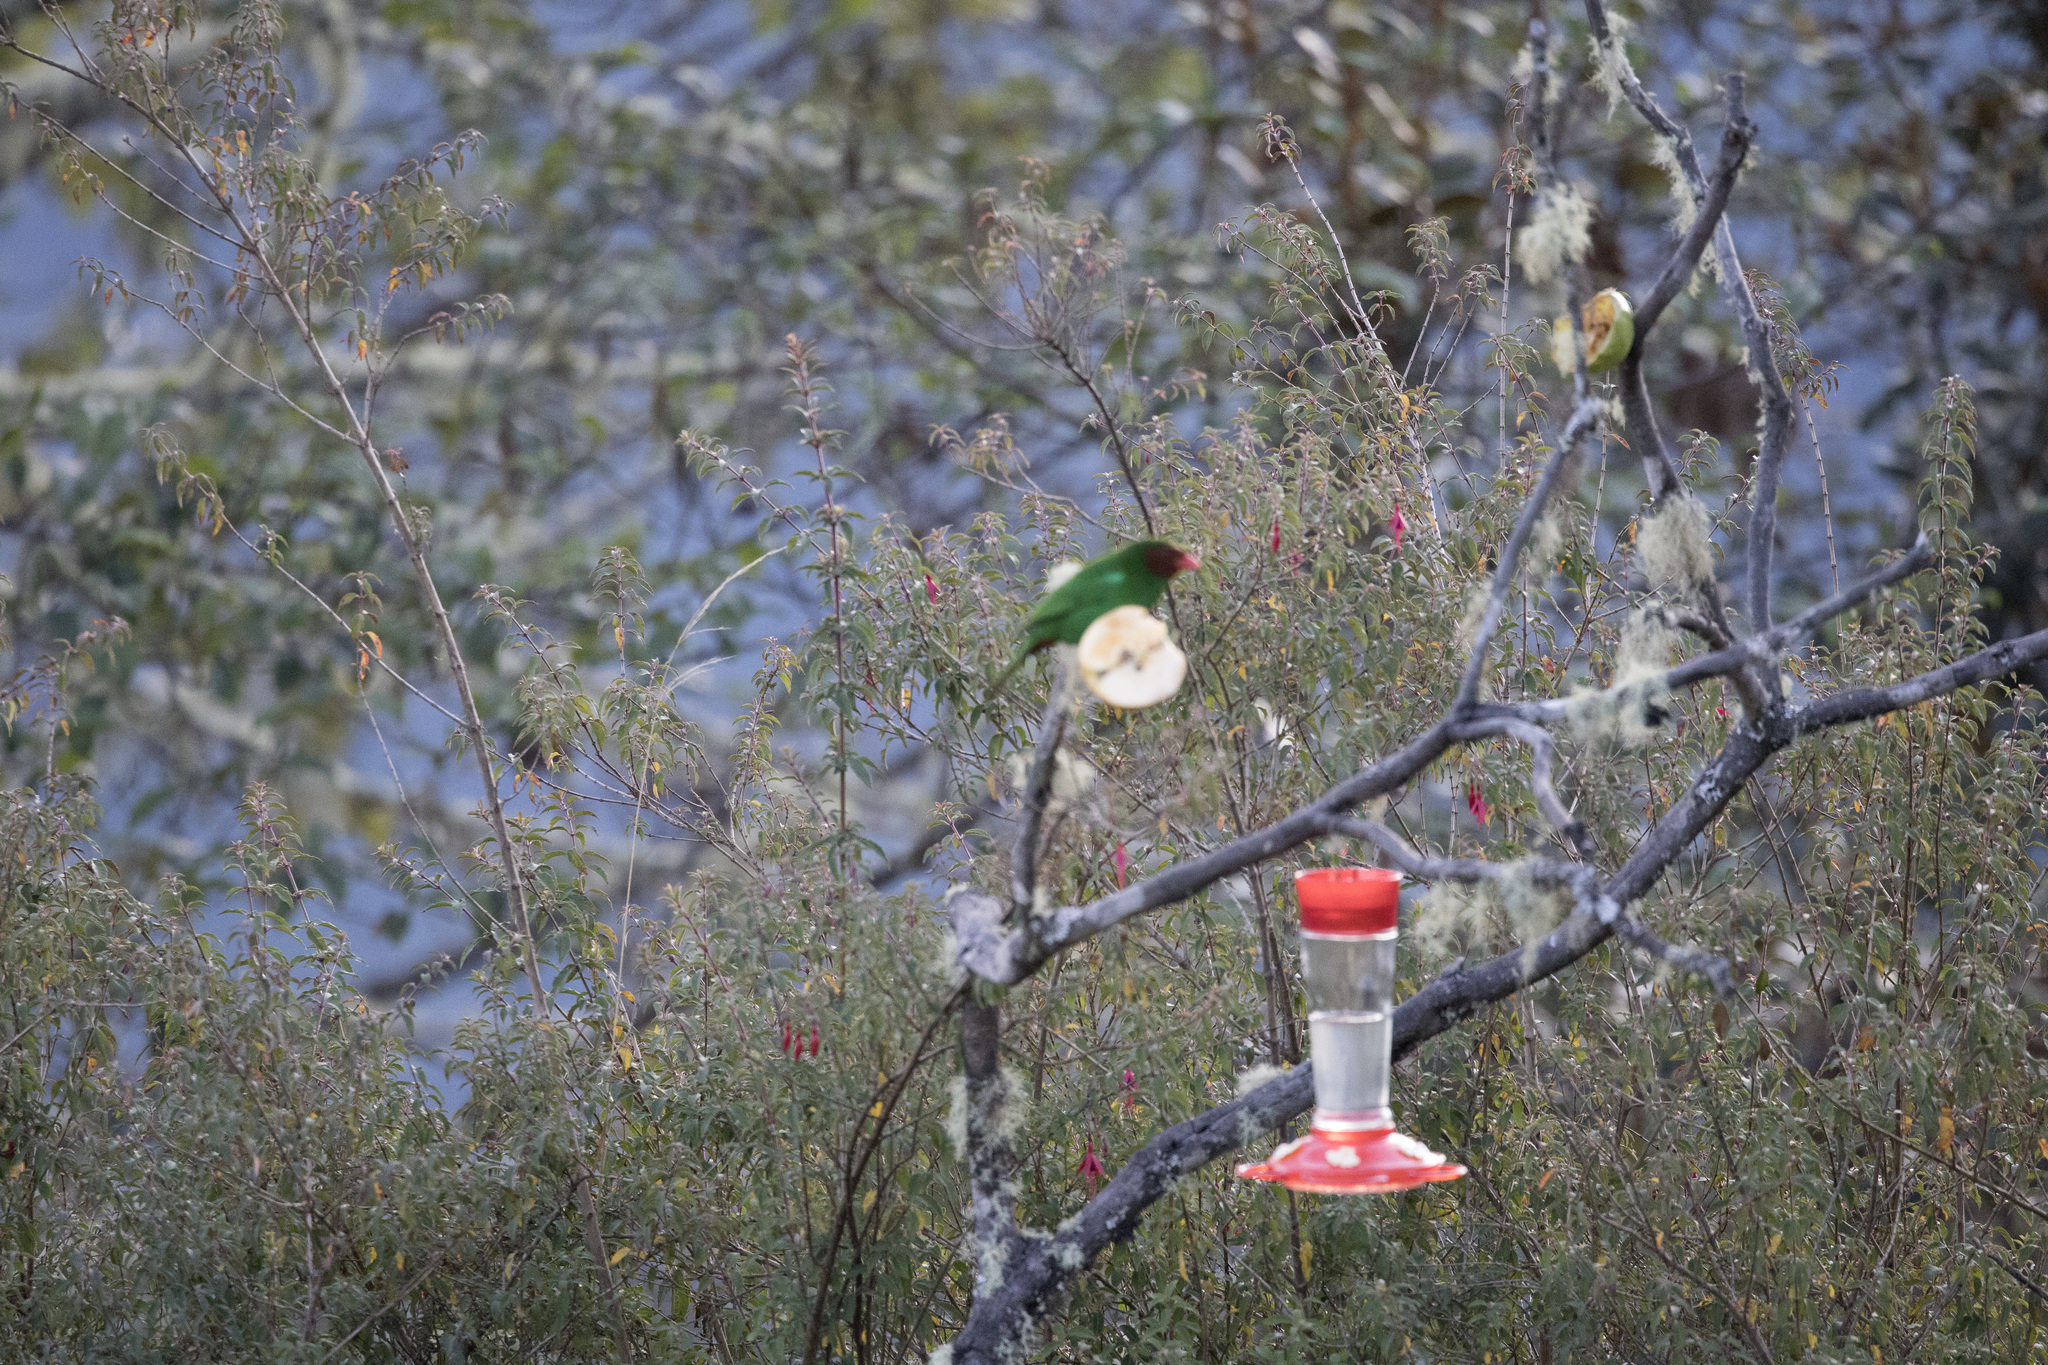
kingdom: Animalia
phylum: Chordata
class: Aves
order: Passeriformes
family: Thraupidae
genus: Chlorornis
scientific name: Chlorornis riefferii
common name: Grass-green tanager
